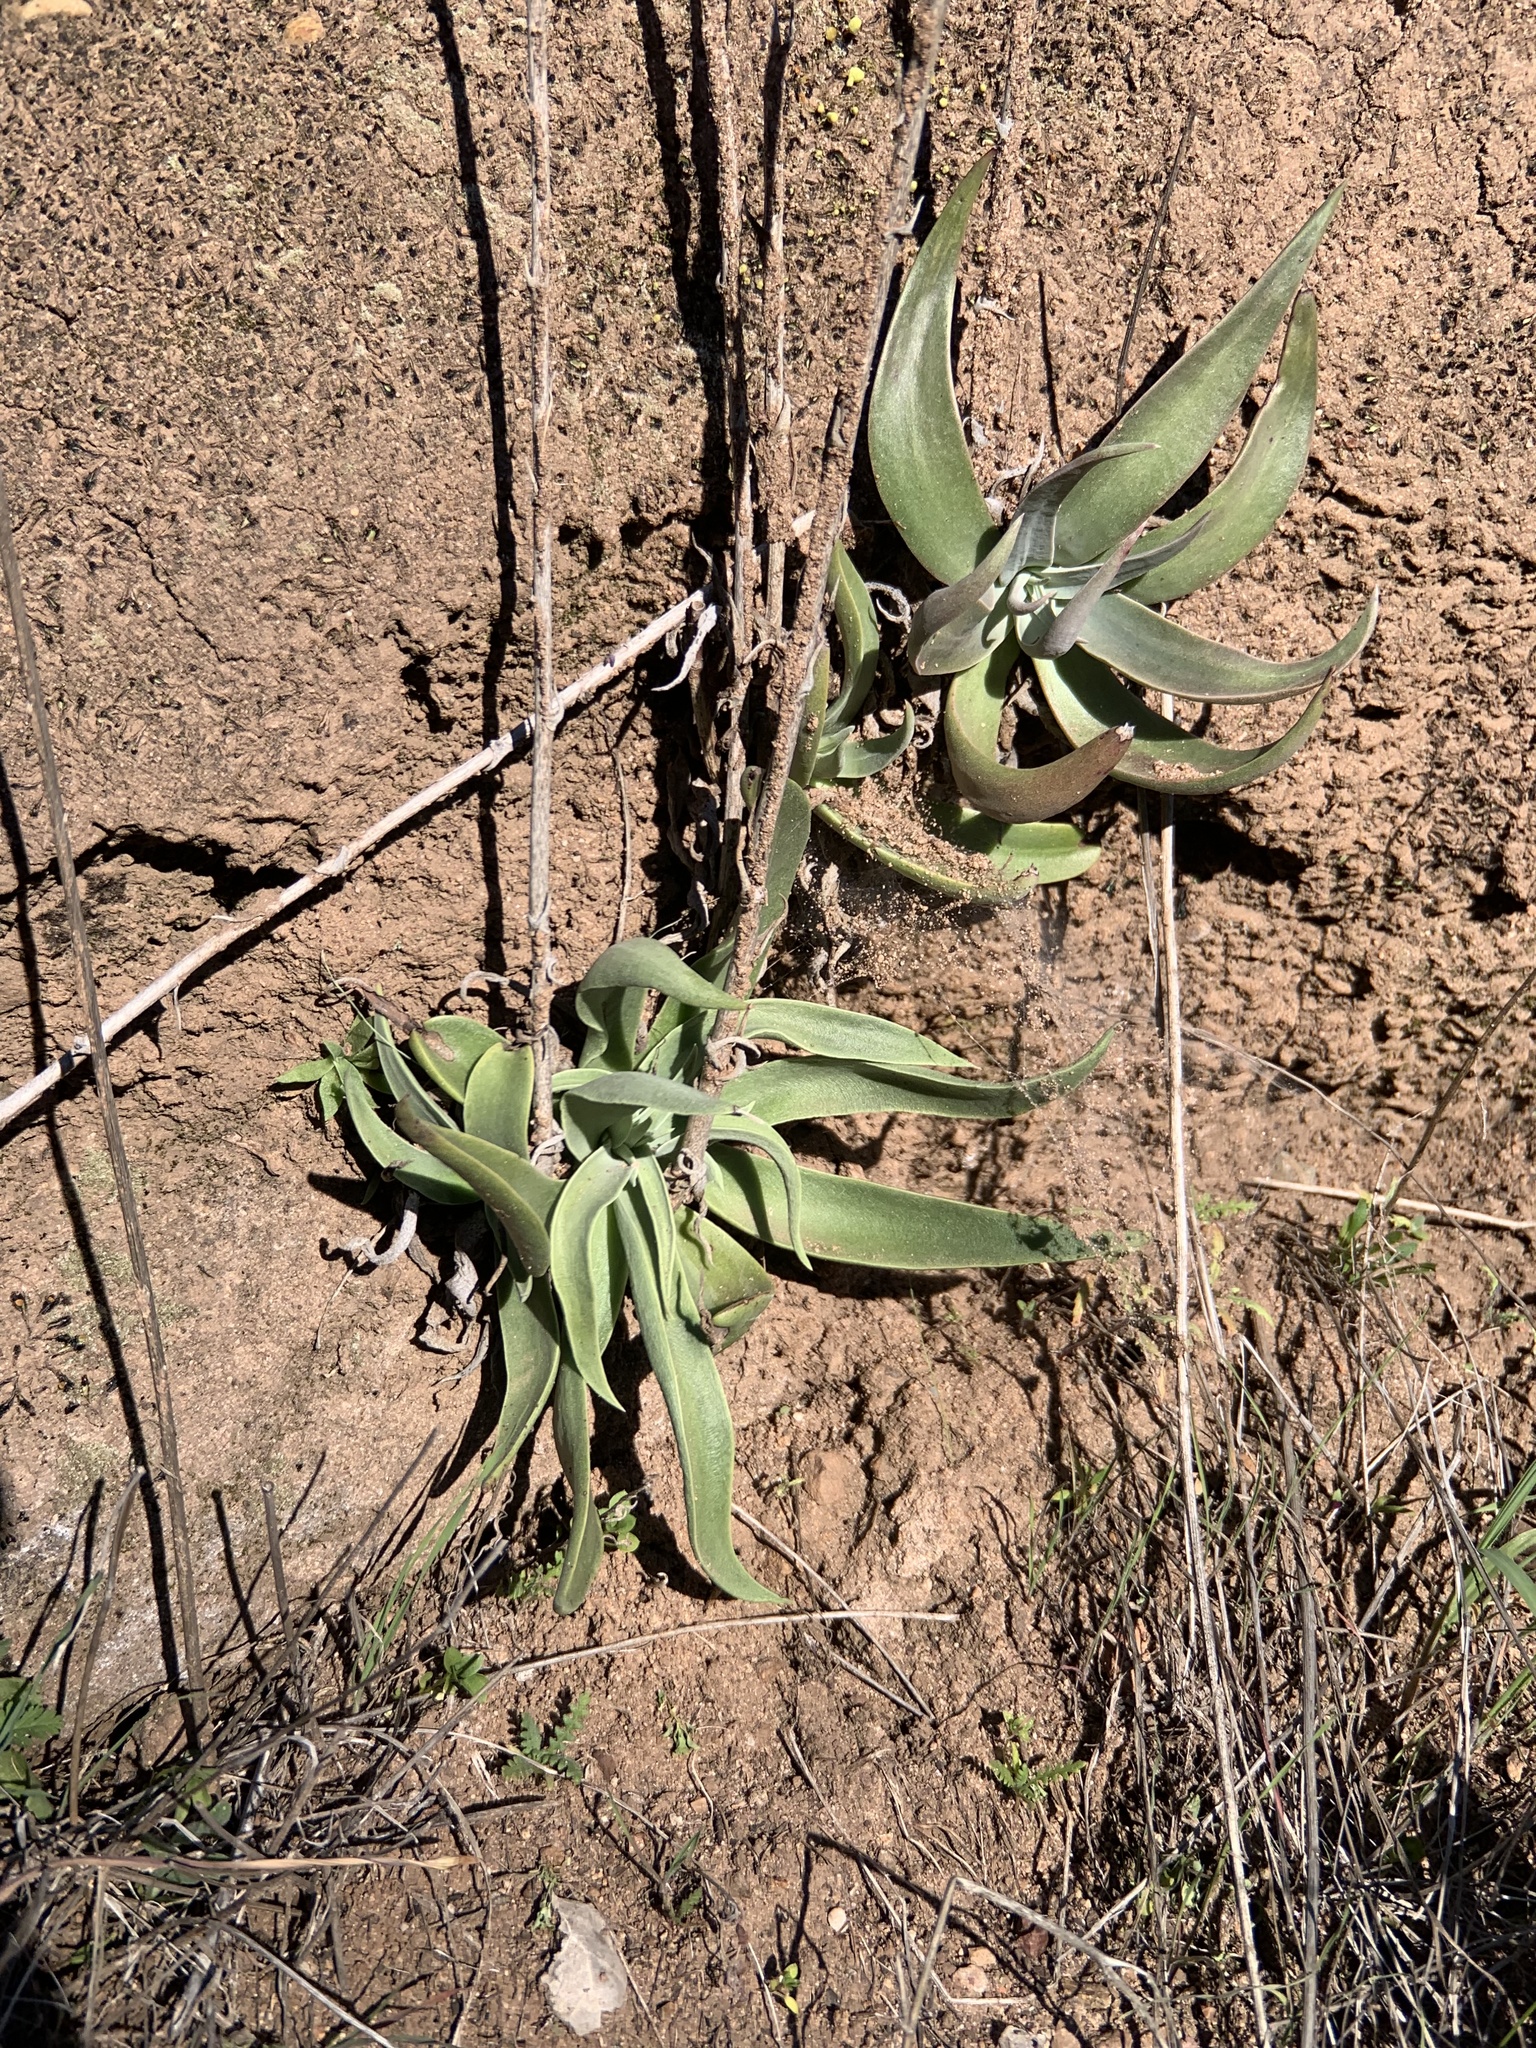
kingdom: Plantae
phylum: Tracheophyta
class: Magnoliopsida
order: Saxifragales
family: Crassulaceae
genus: Dudleya
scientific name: Dudleya lanceolata
